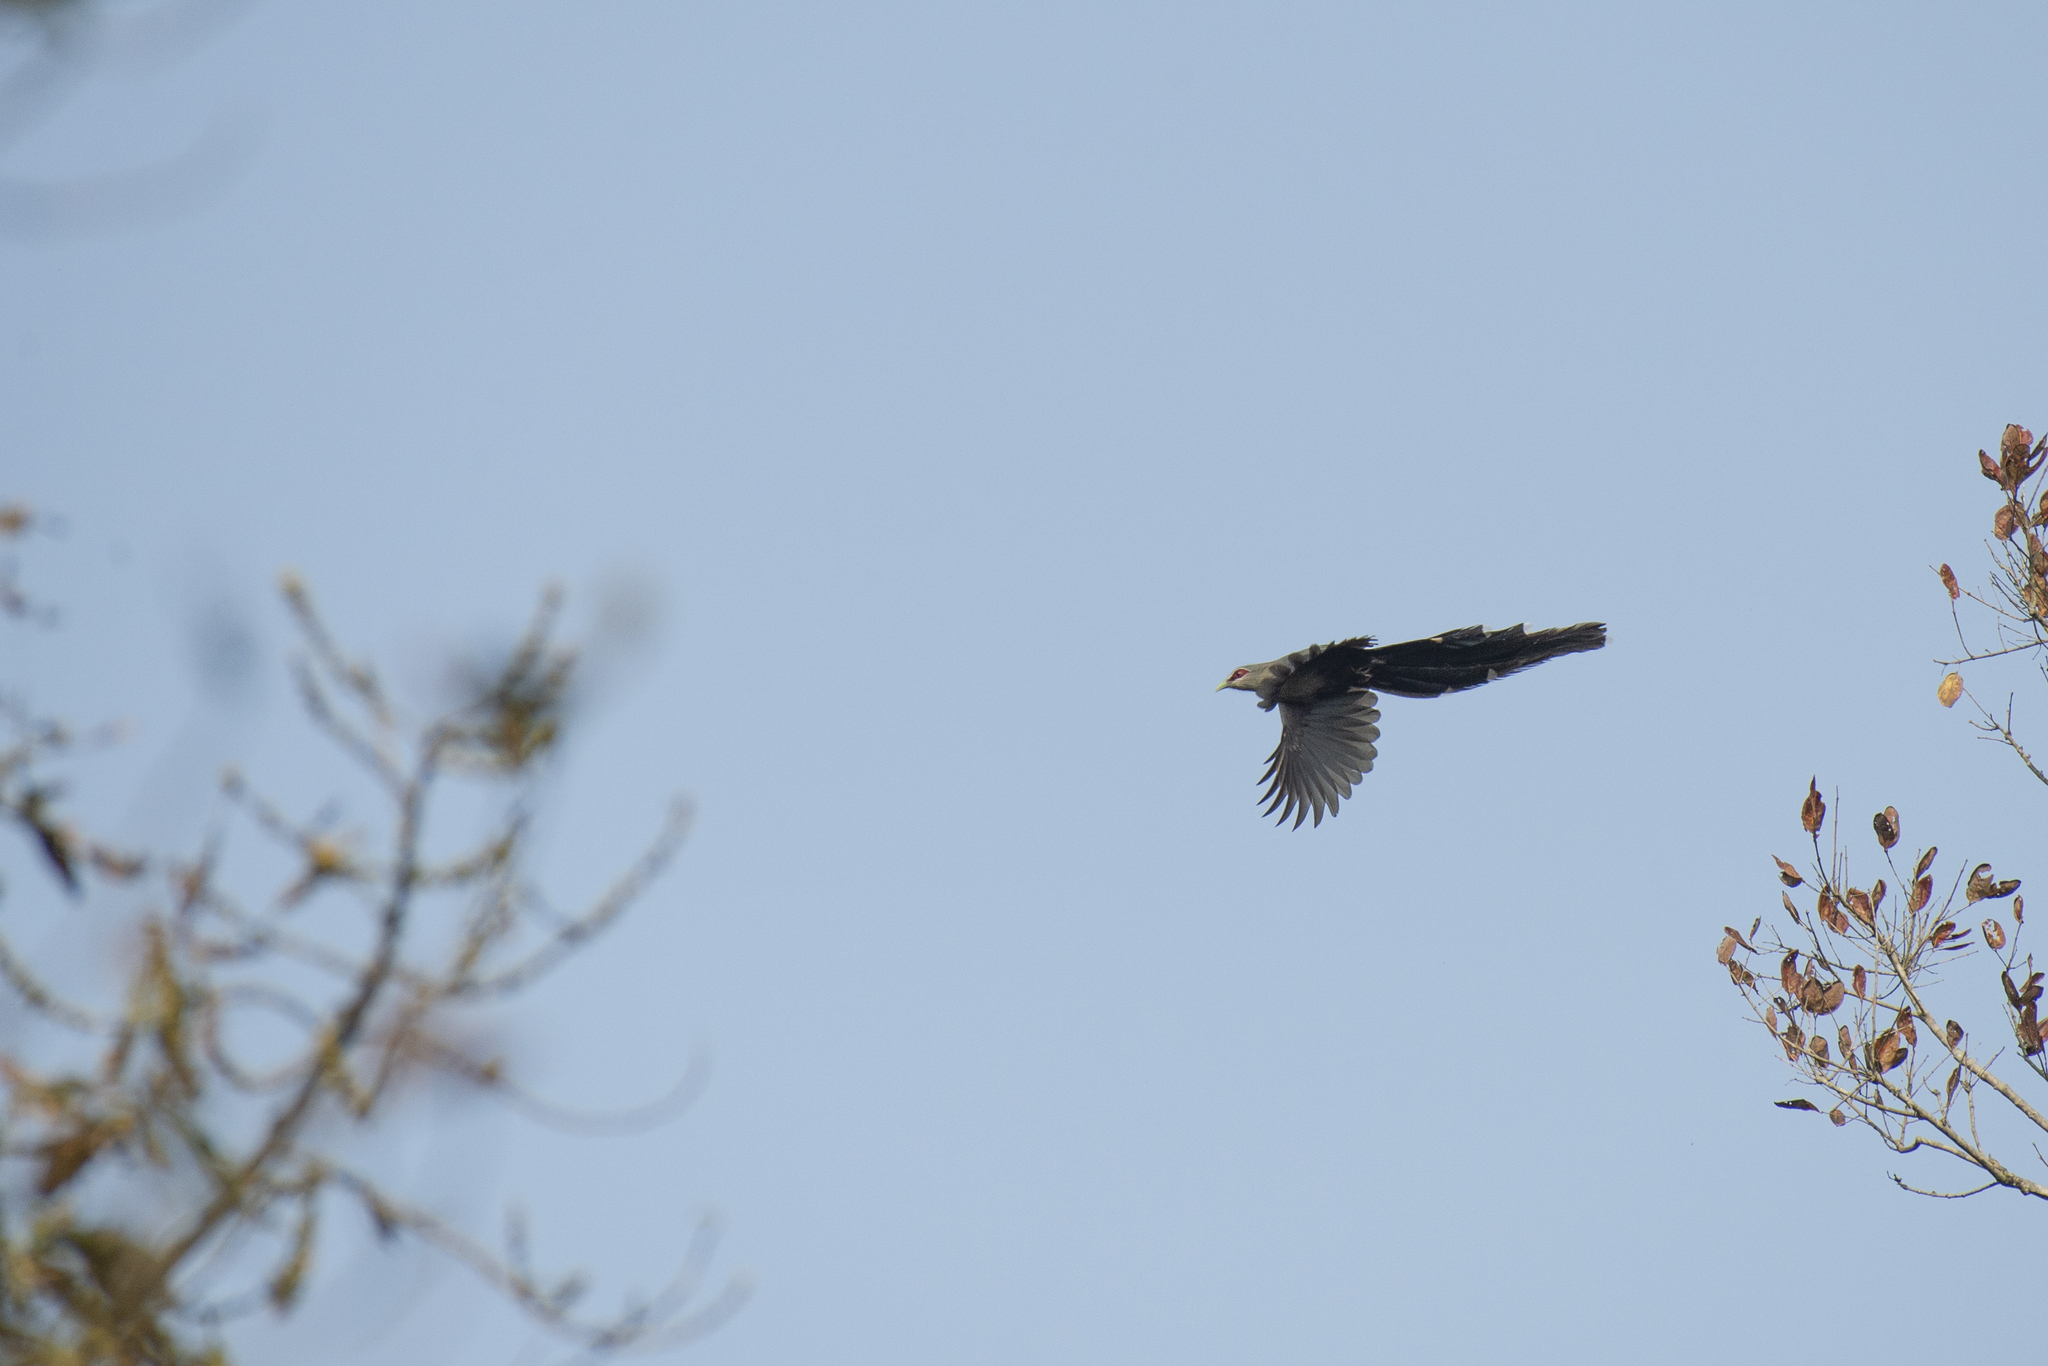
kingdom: Animalia
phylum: Chordata
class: Aves
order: Cuculiformes
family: Cuculidae
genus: Rhopodytes
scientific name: Rhopodytes tristis
